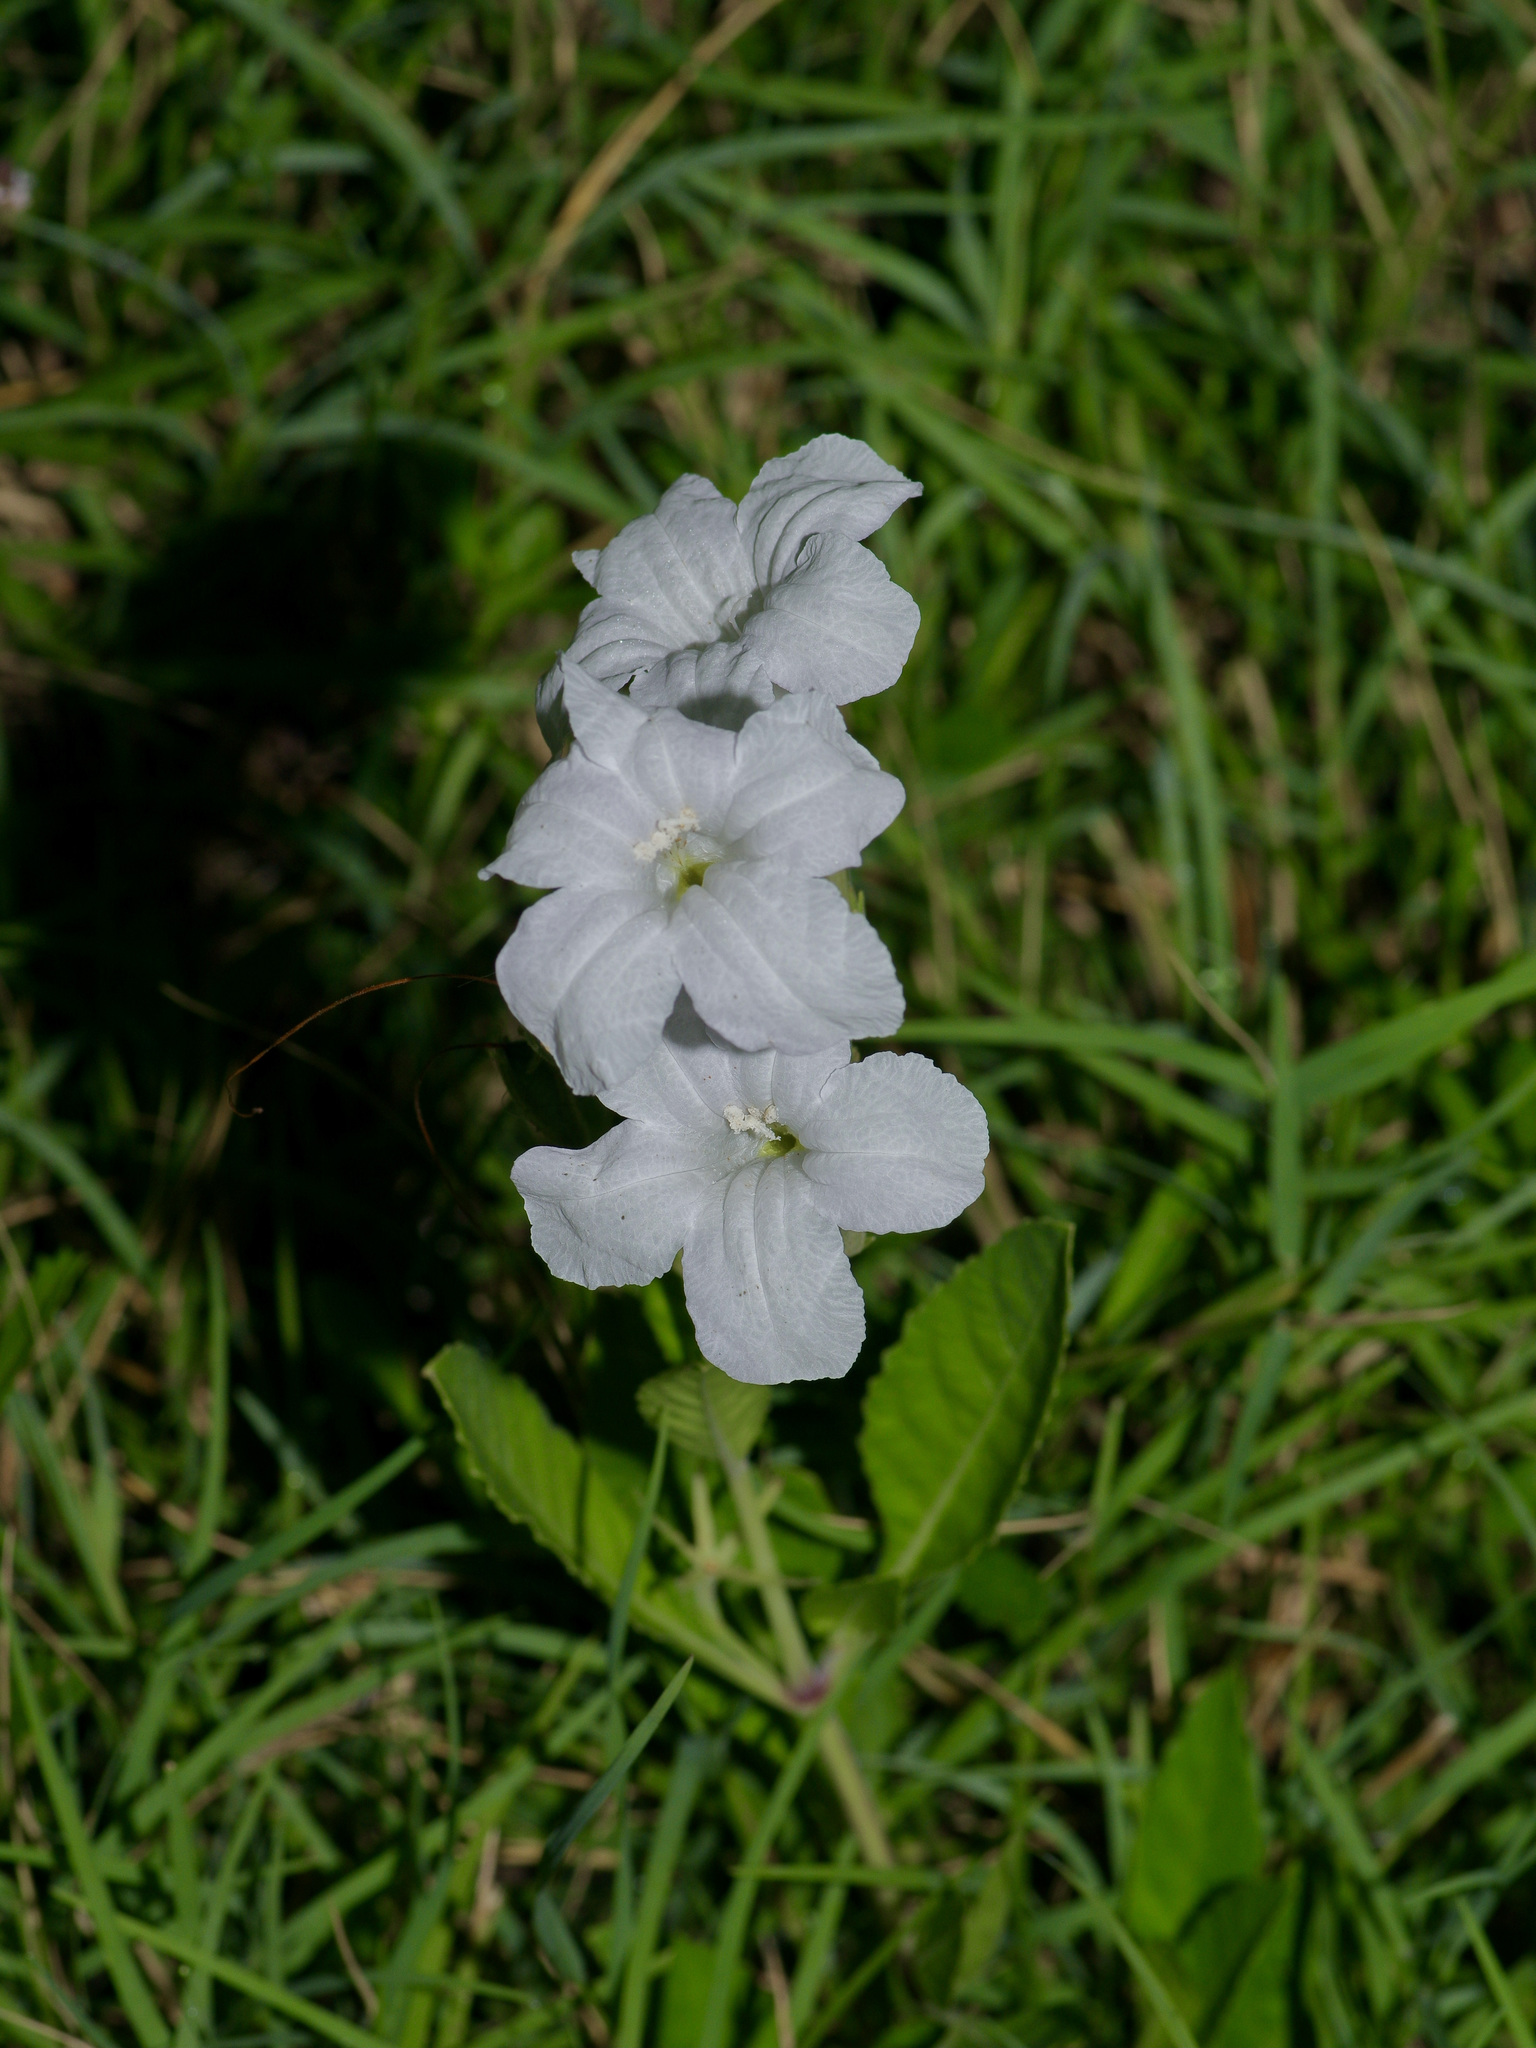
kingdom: Plantae
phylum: Tracheophyta
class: Magnoliopsida
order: Lamiales
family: Acanthaceae
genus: Ruellia
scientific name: Ruellia metziae
